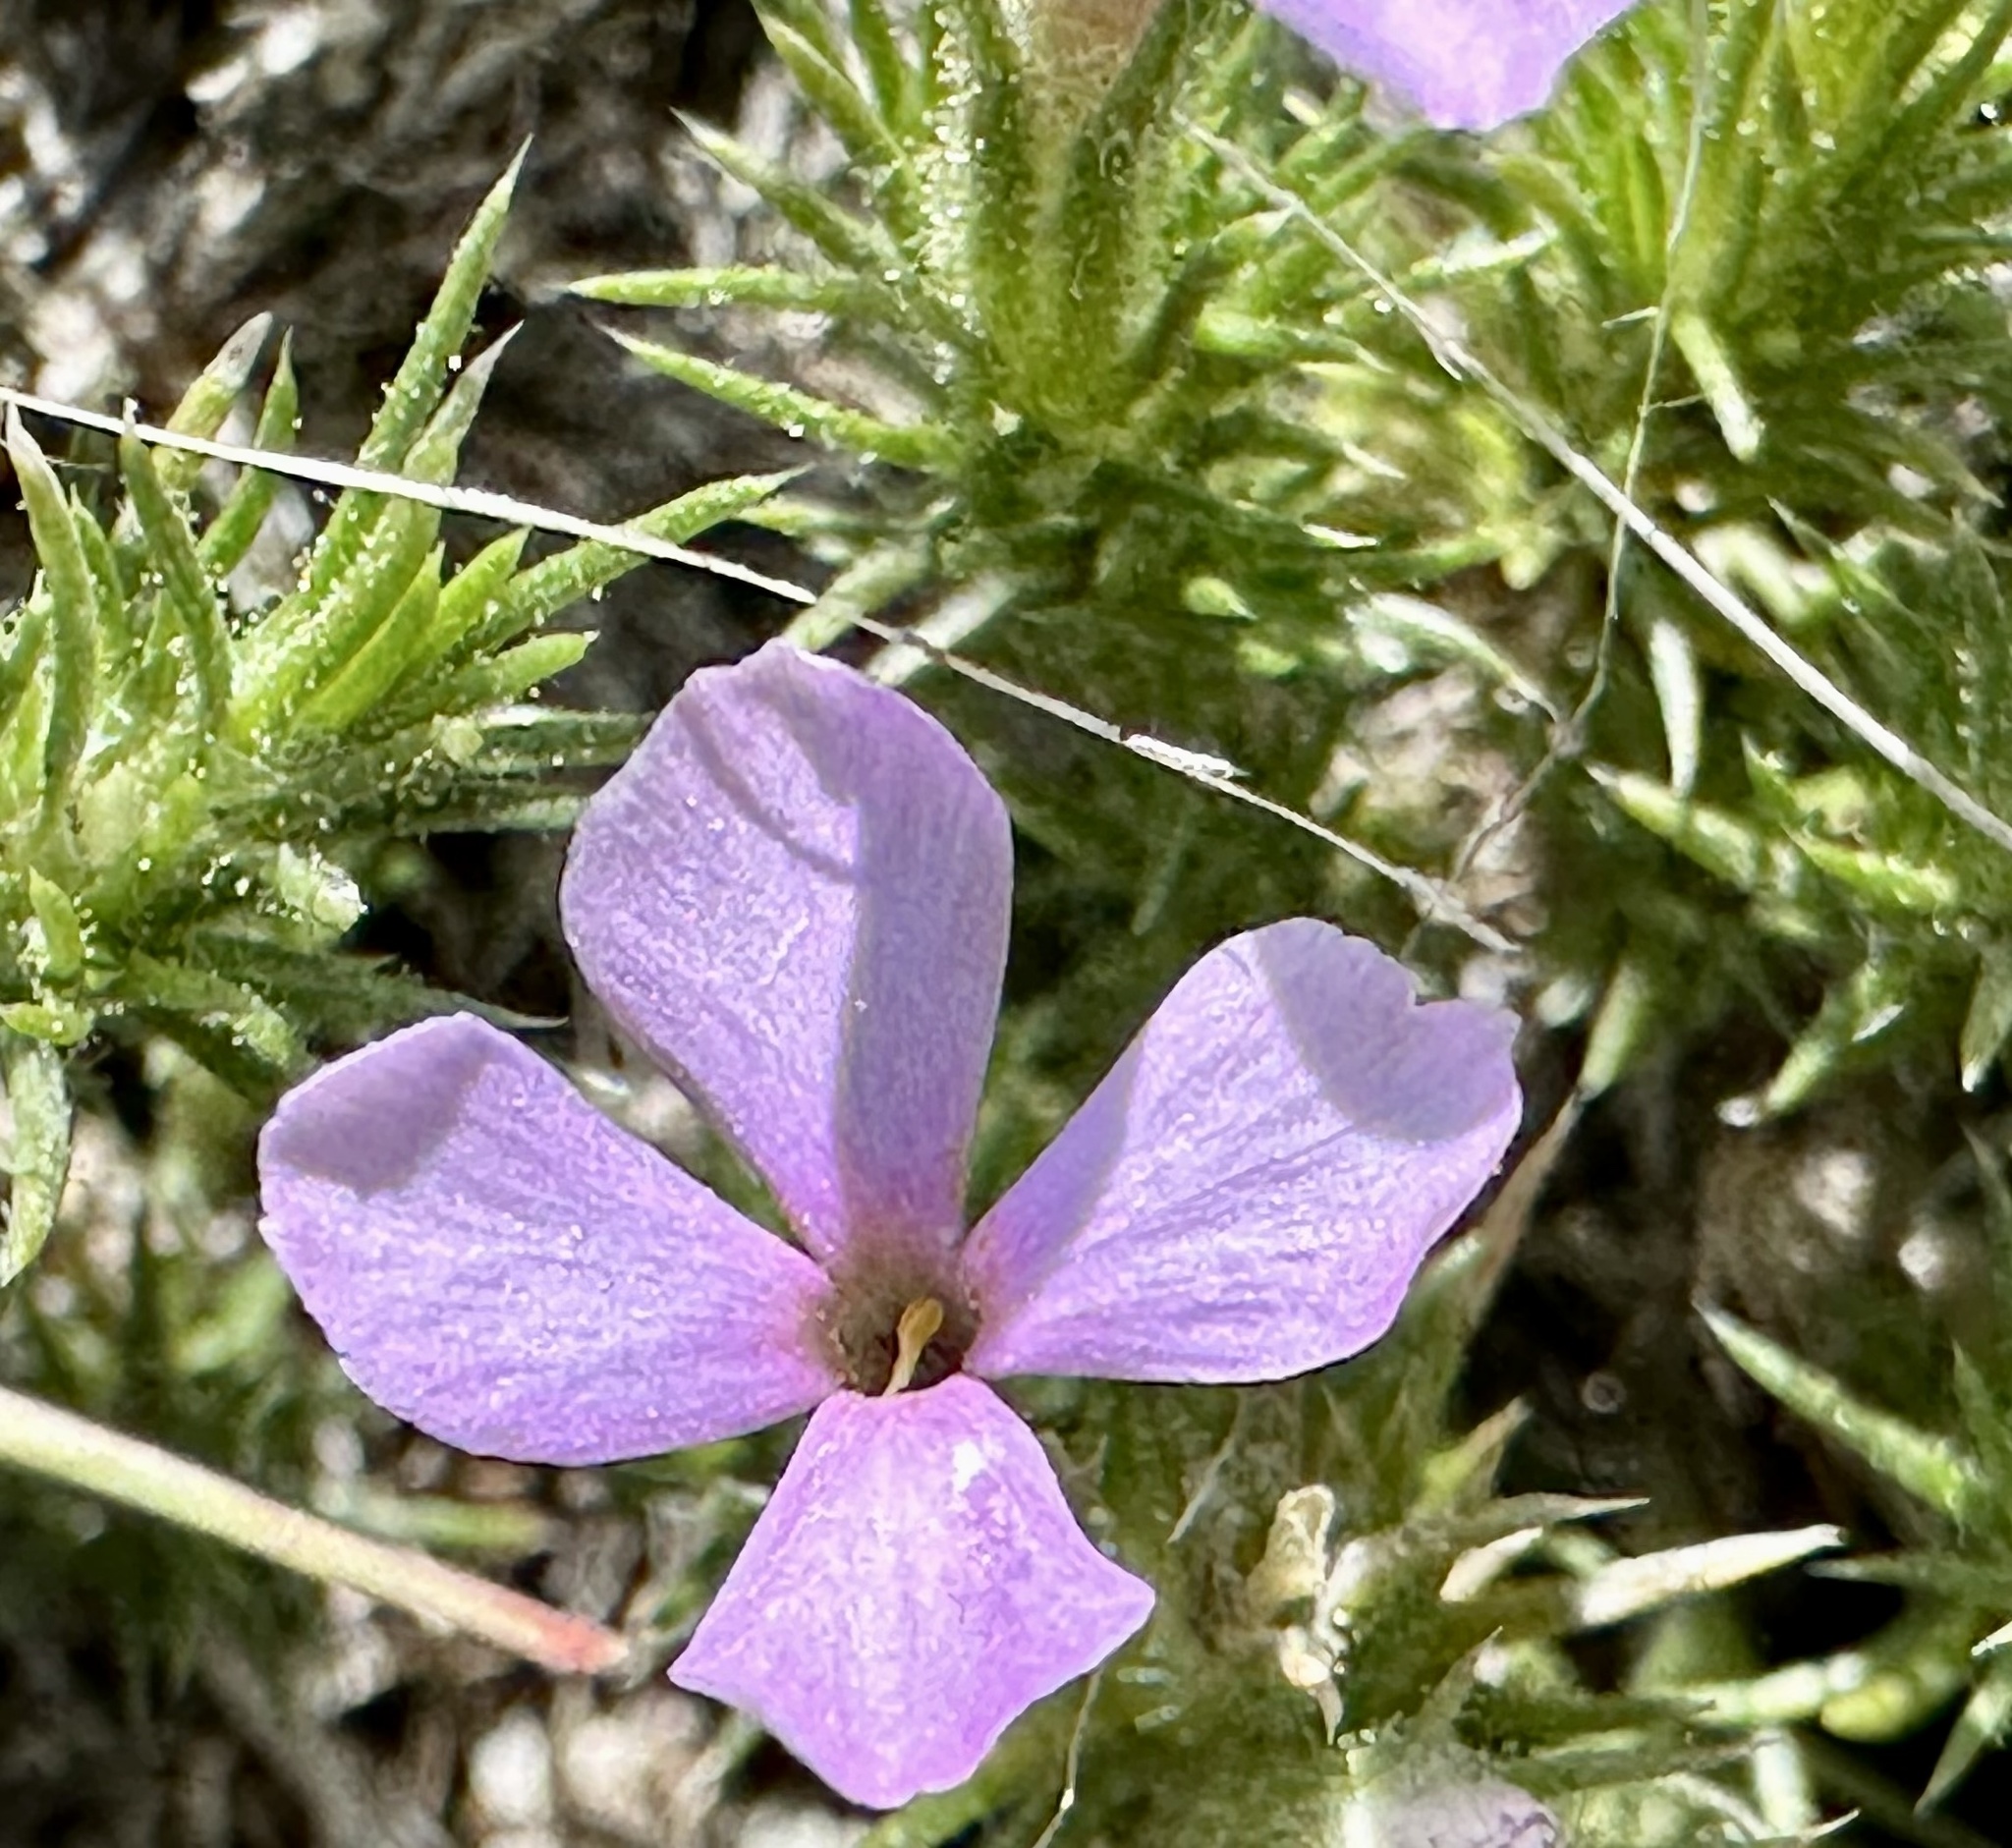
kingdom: Plantae
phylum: Tracheophyta
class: Magnoliopsida
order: Ericales
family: Polemoniaceae
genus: Phlox
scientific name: Phlox douglasii
